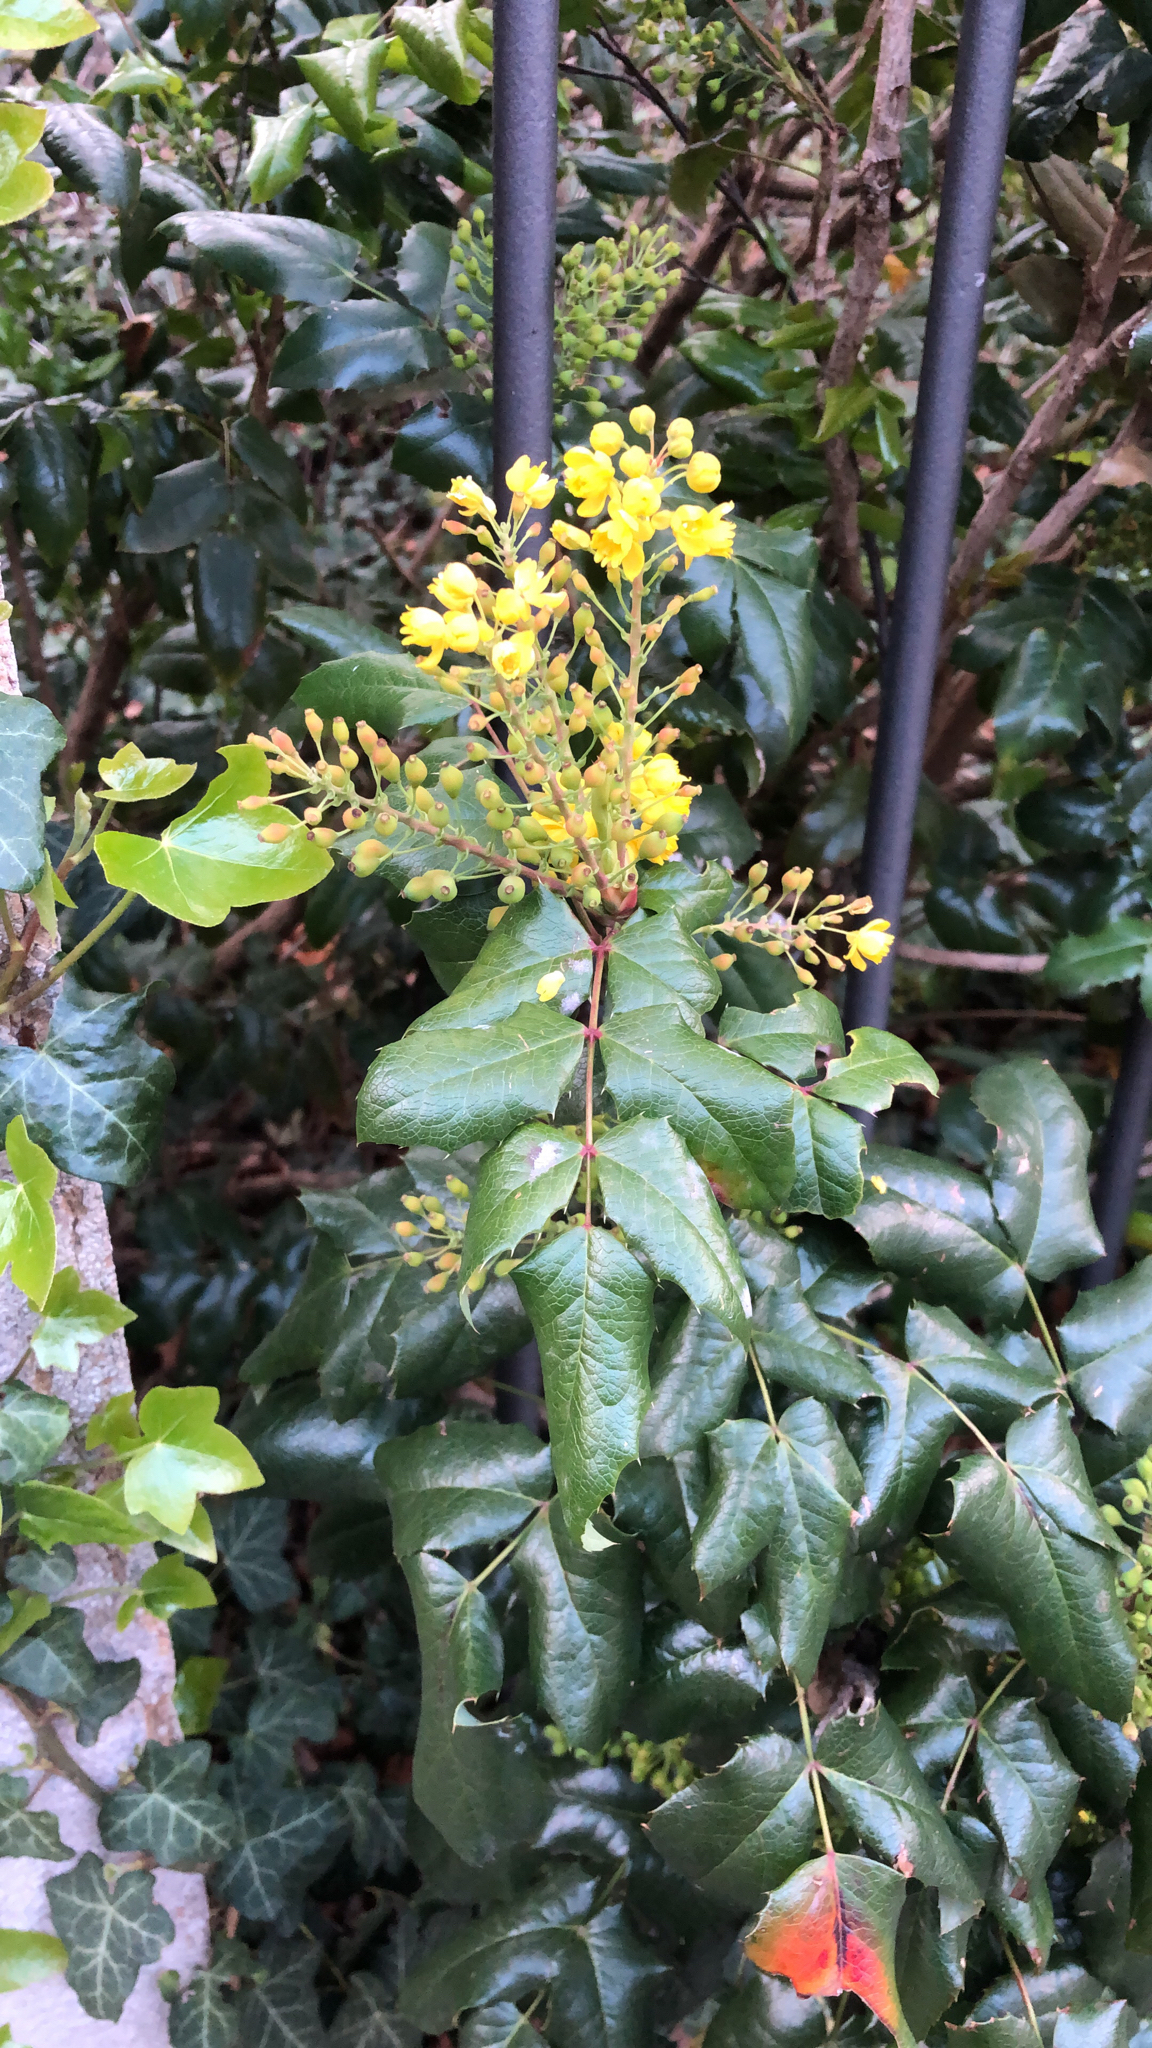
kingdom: Plantae
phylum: Tracheophyta
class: Magnoliopsida
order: Ranunculales
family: Berberidaceae
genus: Mahonia
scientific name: Mahonia aquifolium
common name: Oregon-grape
